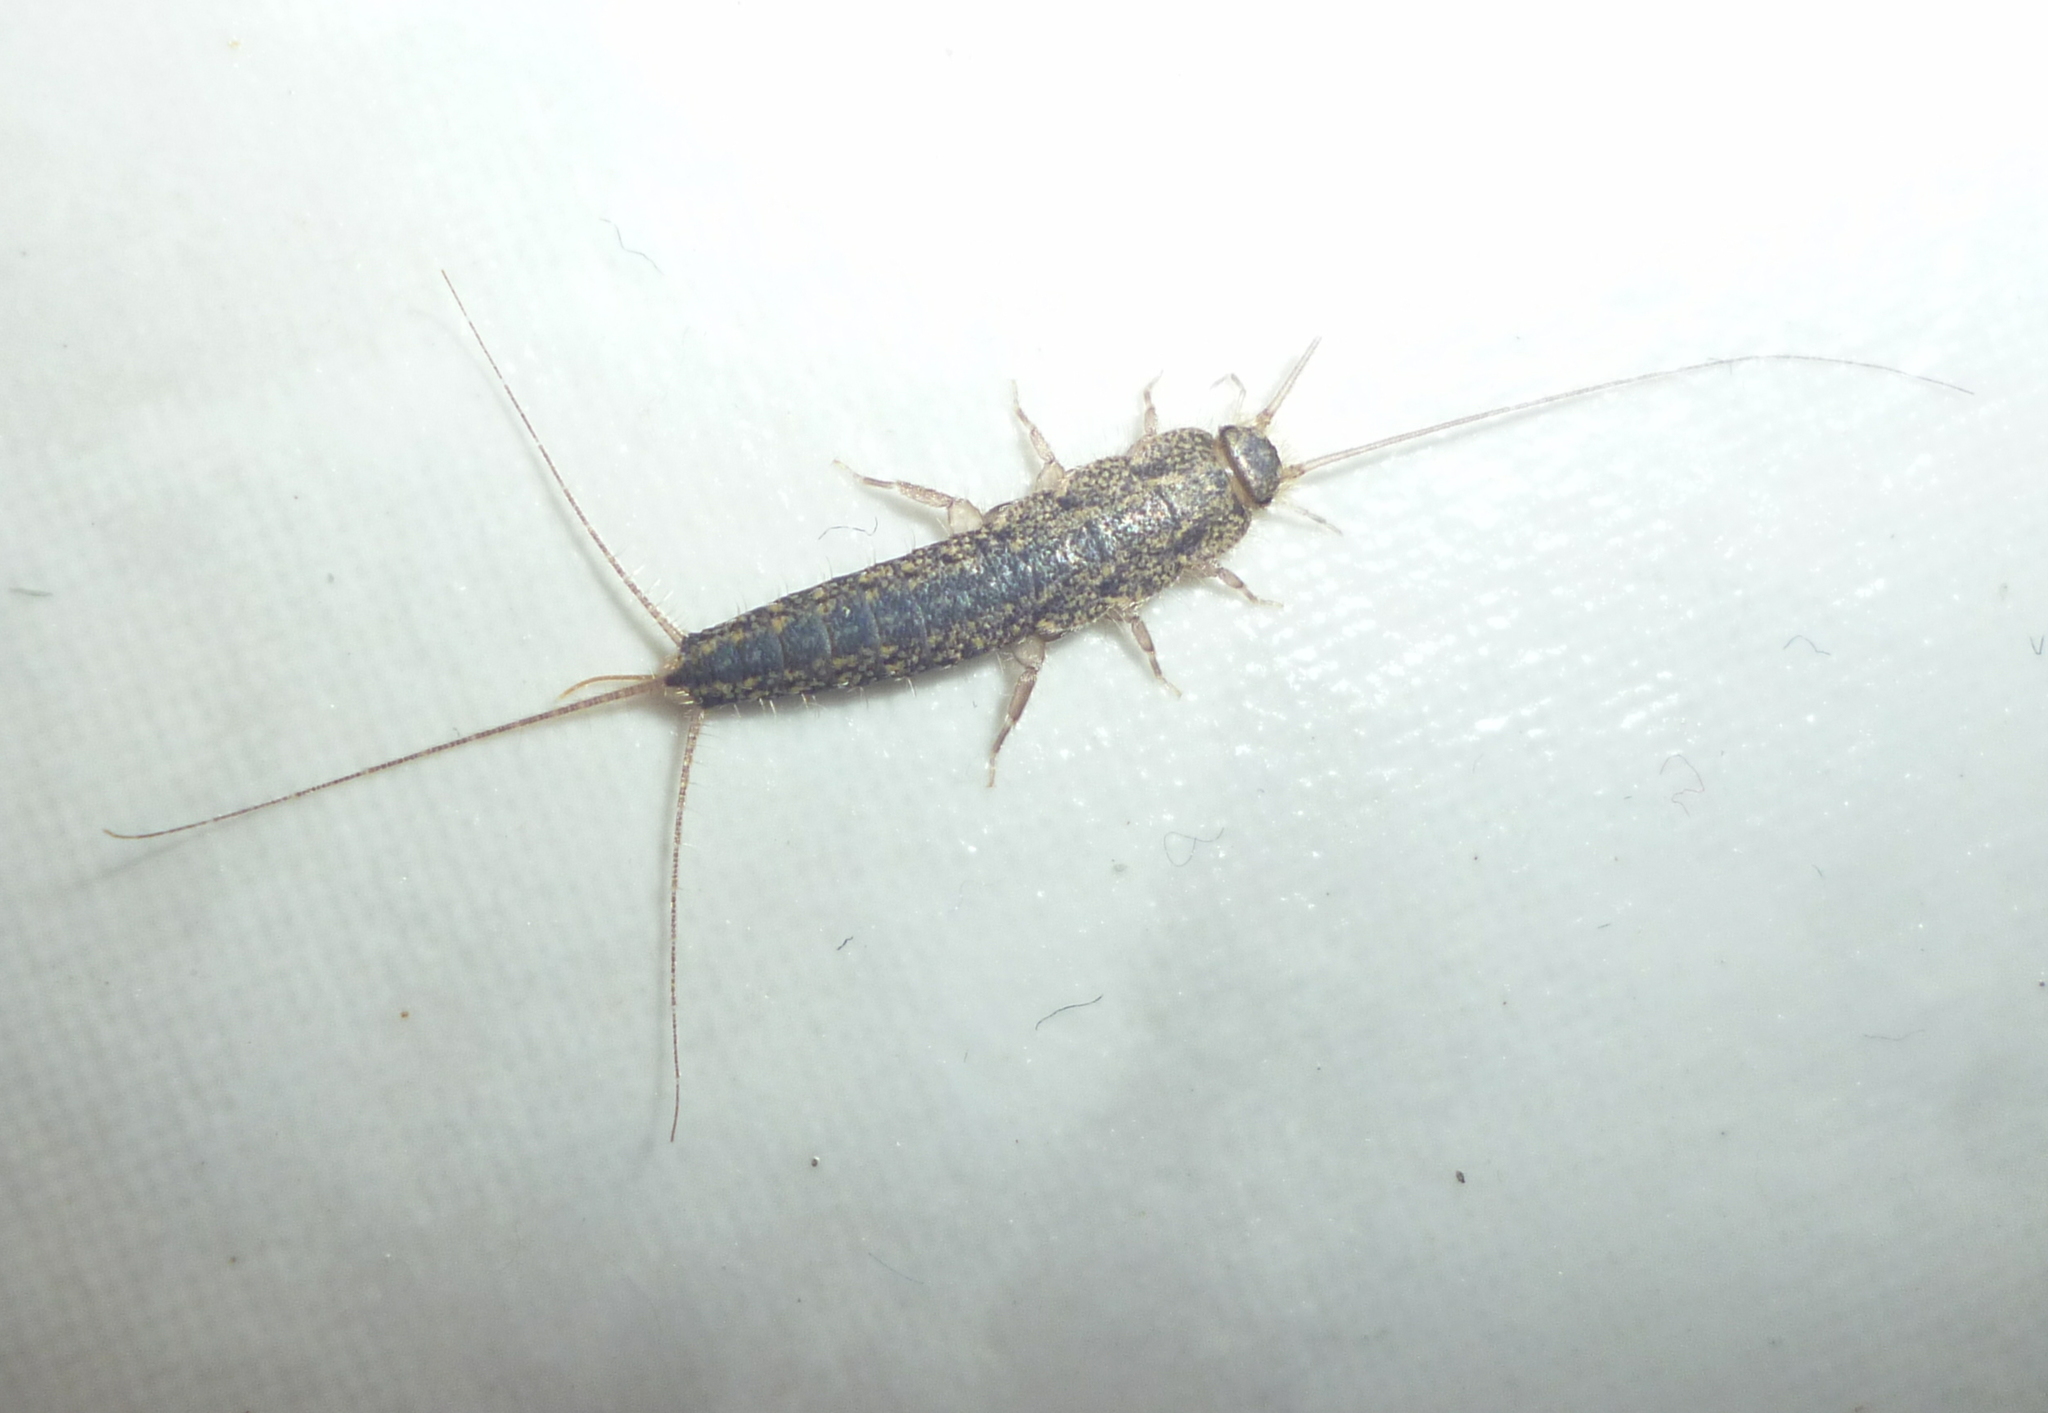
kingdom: Animalia
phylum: Arthropoda
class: Insecta
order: Zygentoma
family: Lepismatidae
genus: Ctenolepisma
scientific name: Ctenolepisma lineata
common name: Four-lined silverfish
